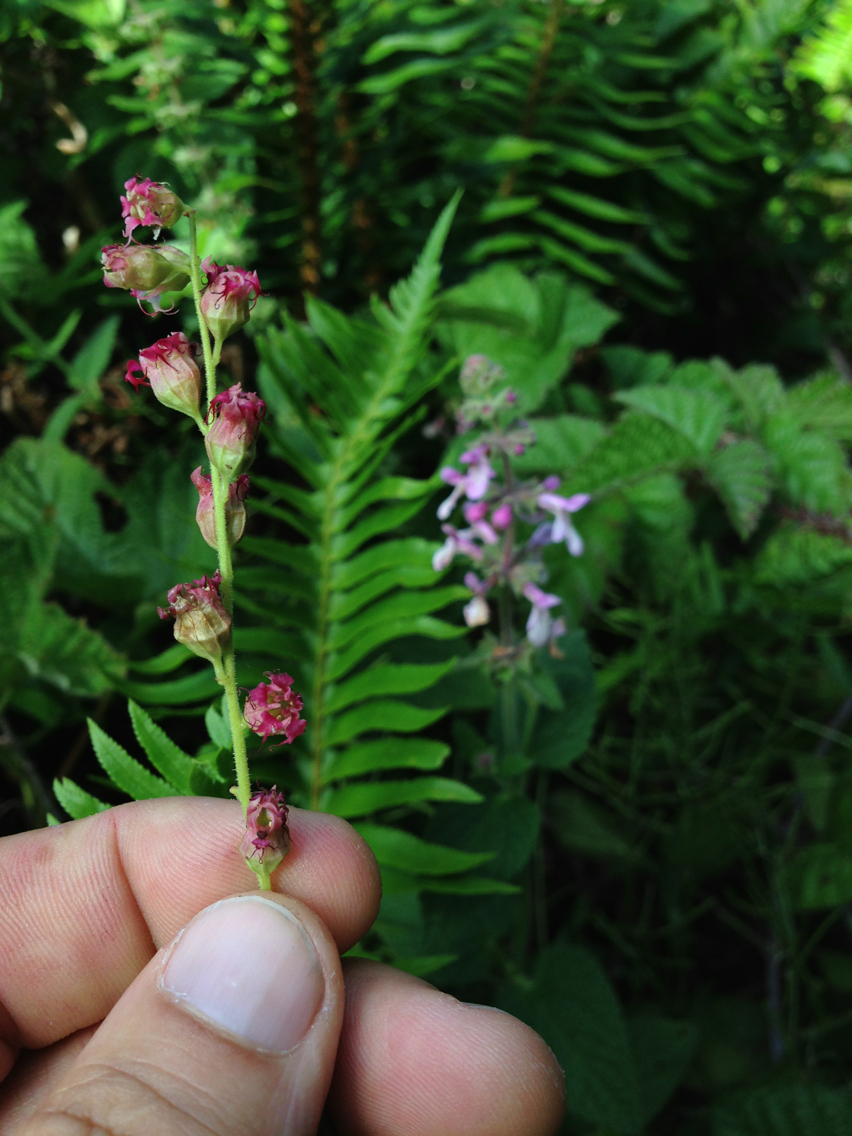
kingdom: Plantae
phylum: Tracheophyta
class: Magnoliopsida
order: Saxifragales
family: Saxifragaceae
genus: Tellima
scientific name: Tellima grandiflora
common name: Fringecups
